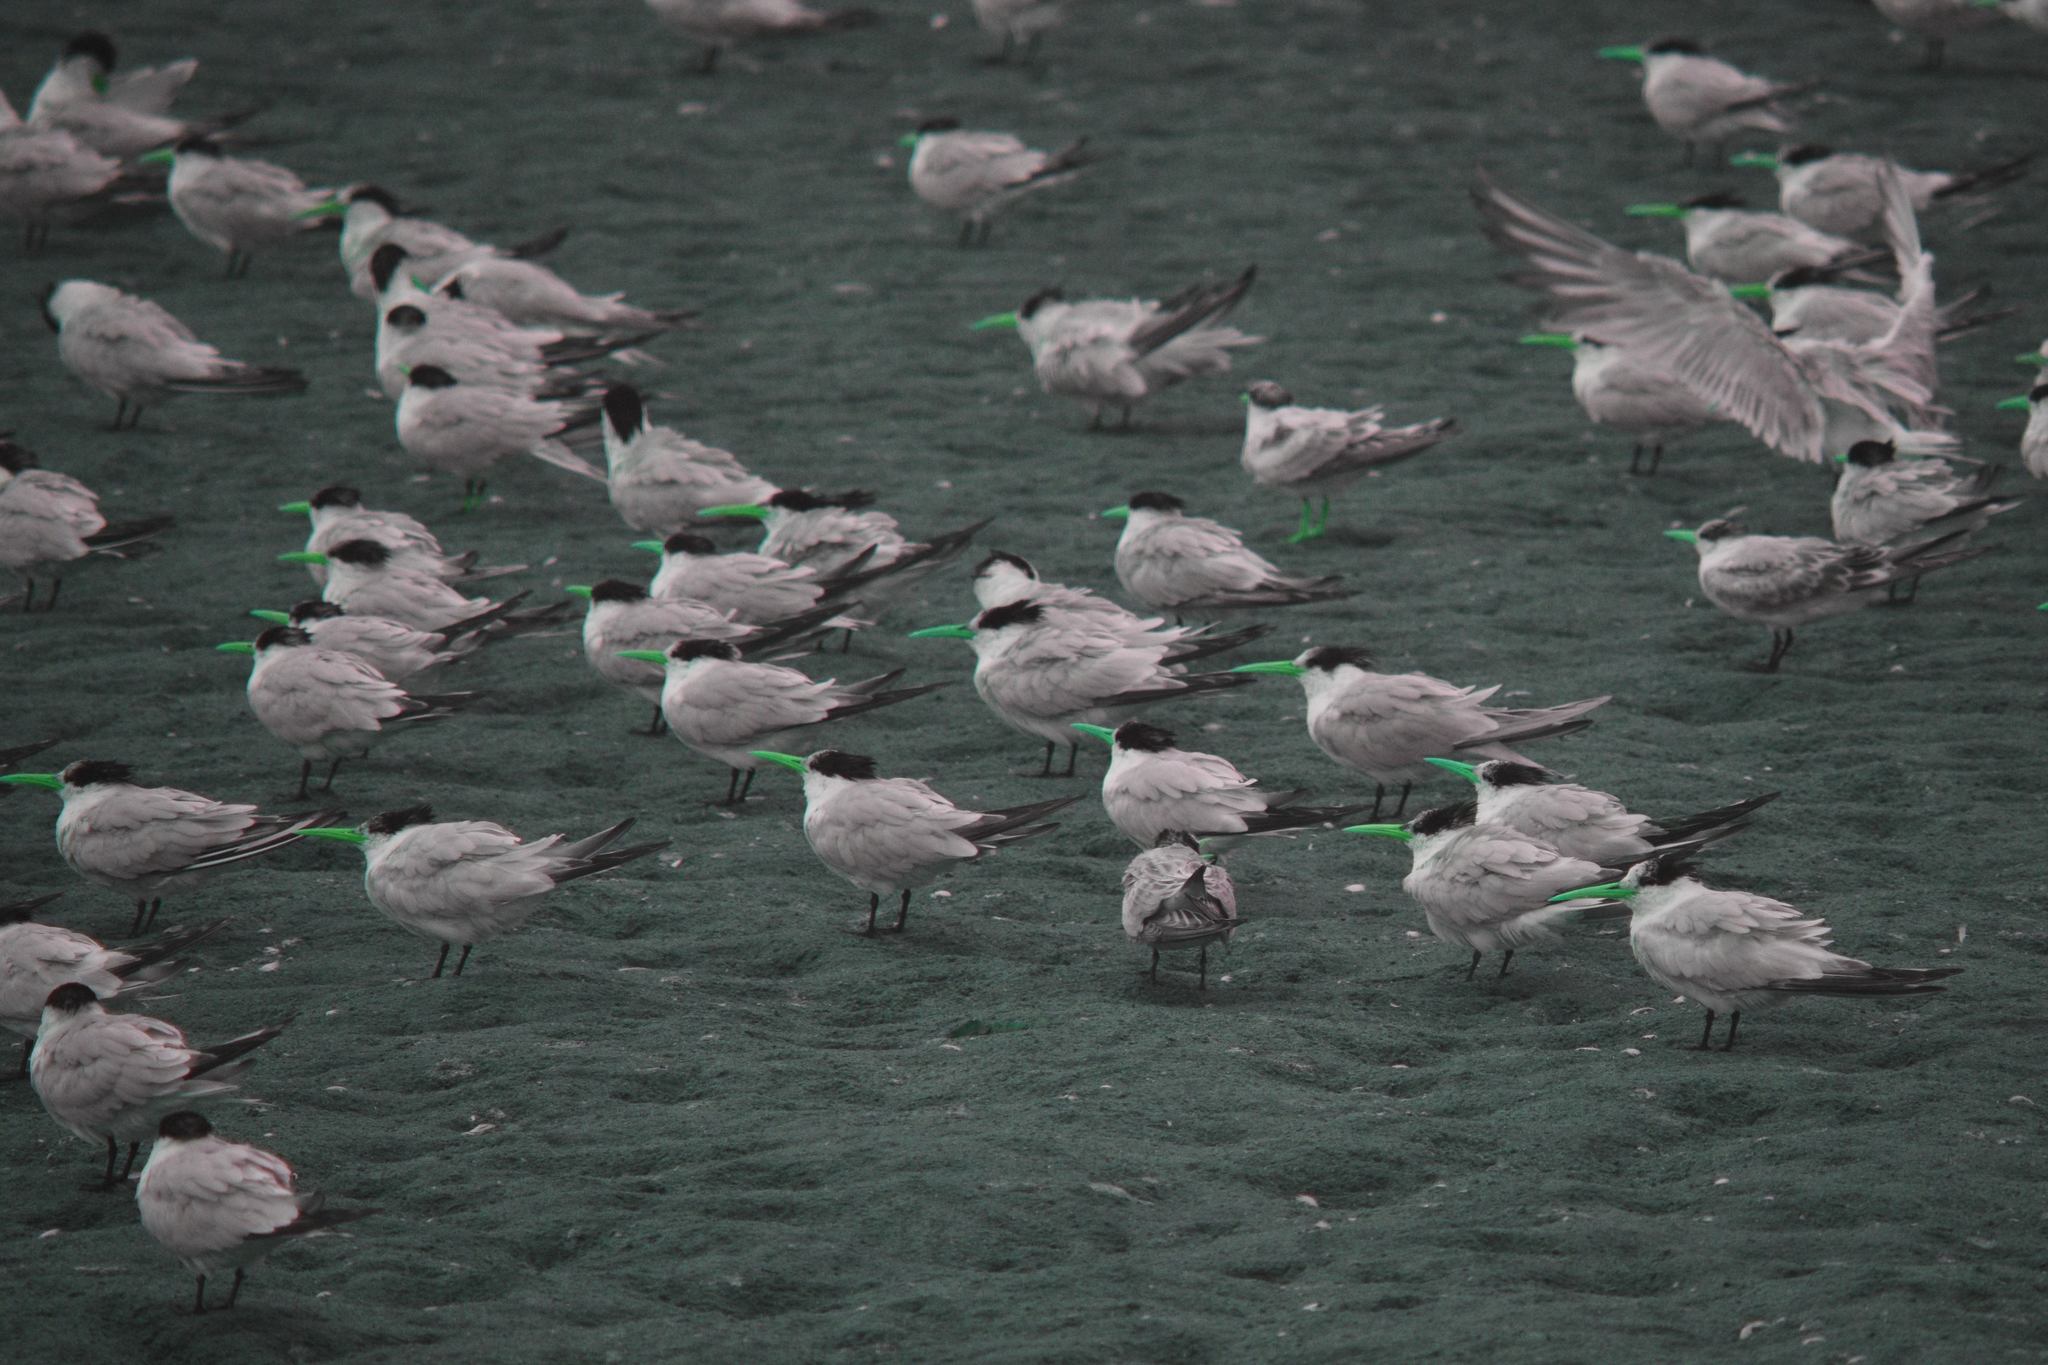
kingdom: Animalia
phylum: Chordata
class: Aves
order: Charadriiformes
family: Laridae
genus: Thalasseus
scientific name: Thalasseus elegans
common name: Elegant tern
